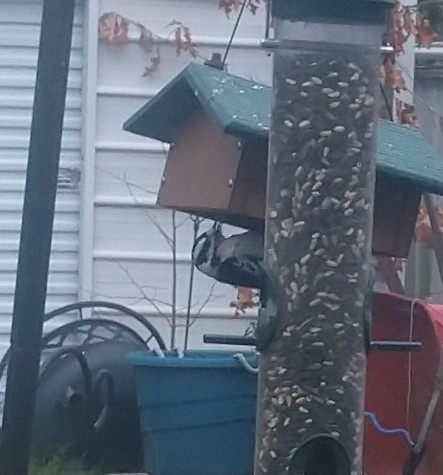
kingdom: Animalia
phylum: Chordata
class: Aves
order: Piciformes
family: Picidae
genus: Dryobates
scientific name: Dryobates pubescens
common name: Downy woodpecker
